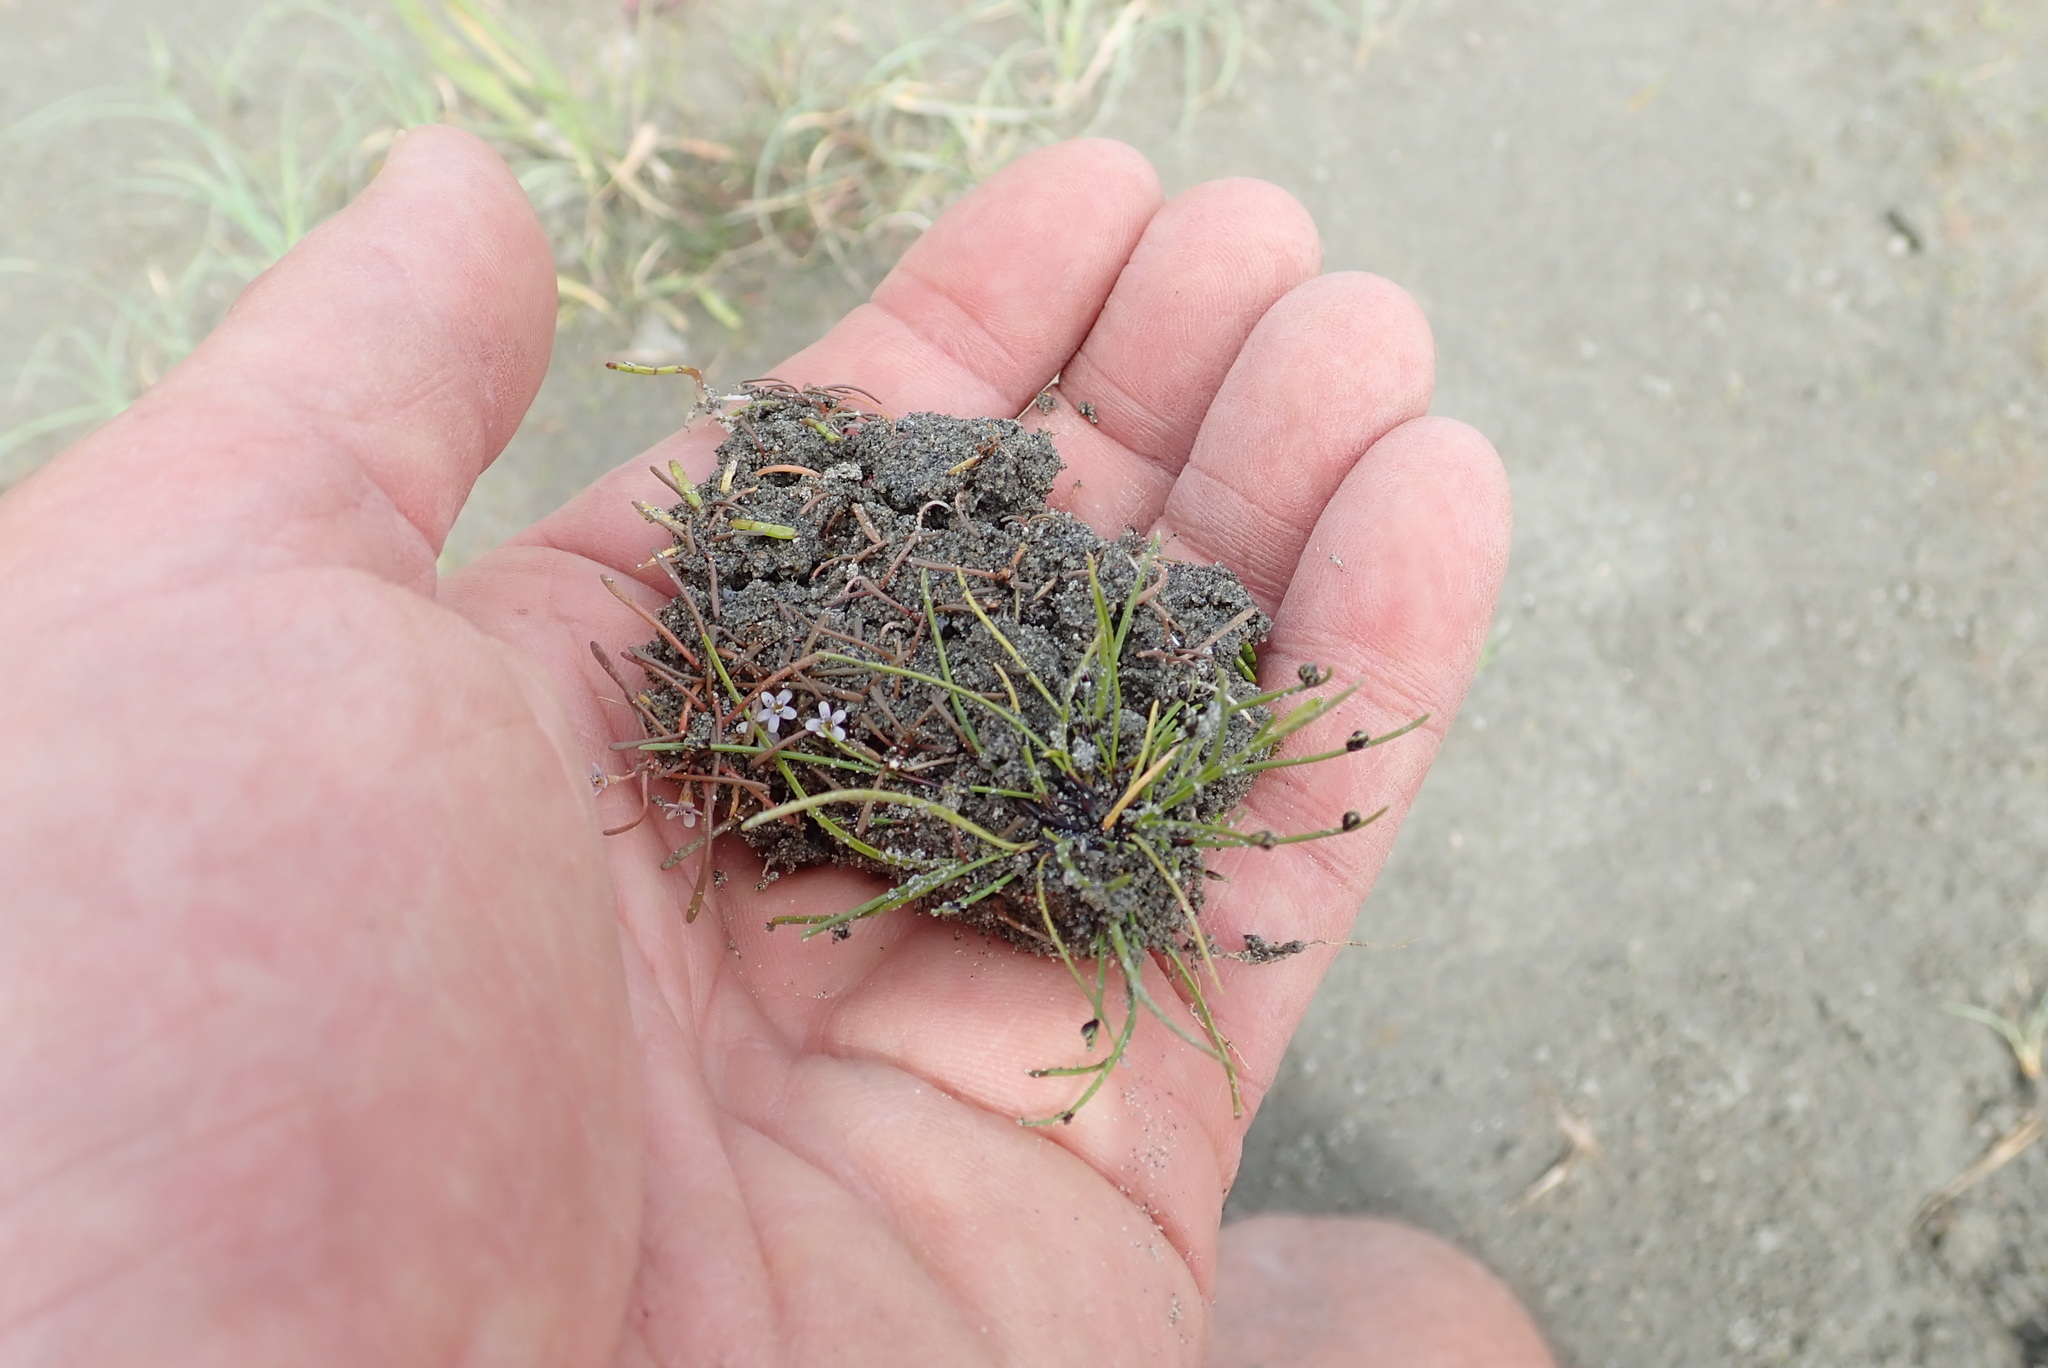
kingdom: Plantae
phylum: Tracheophyta
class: Magnoliopsida
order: Lamiales
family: Scrophulariaceae
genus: Limosella
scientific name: Limosella australis
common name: Welsh mudwort
